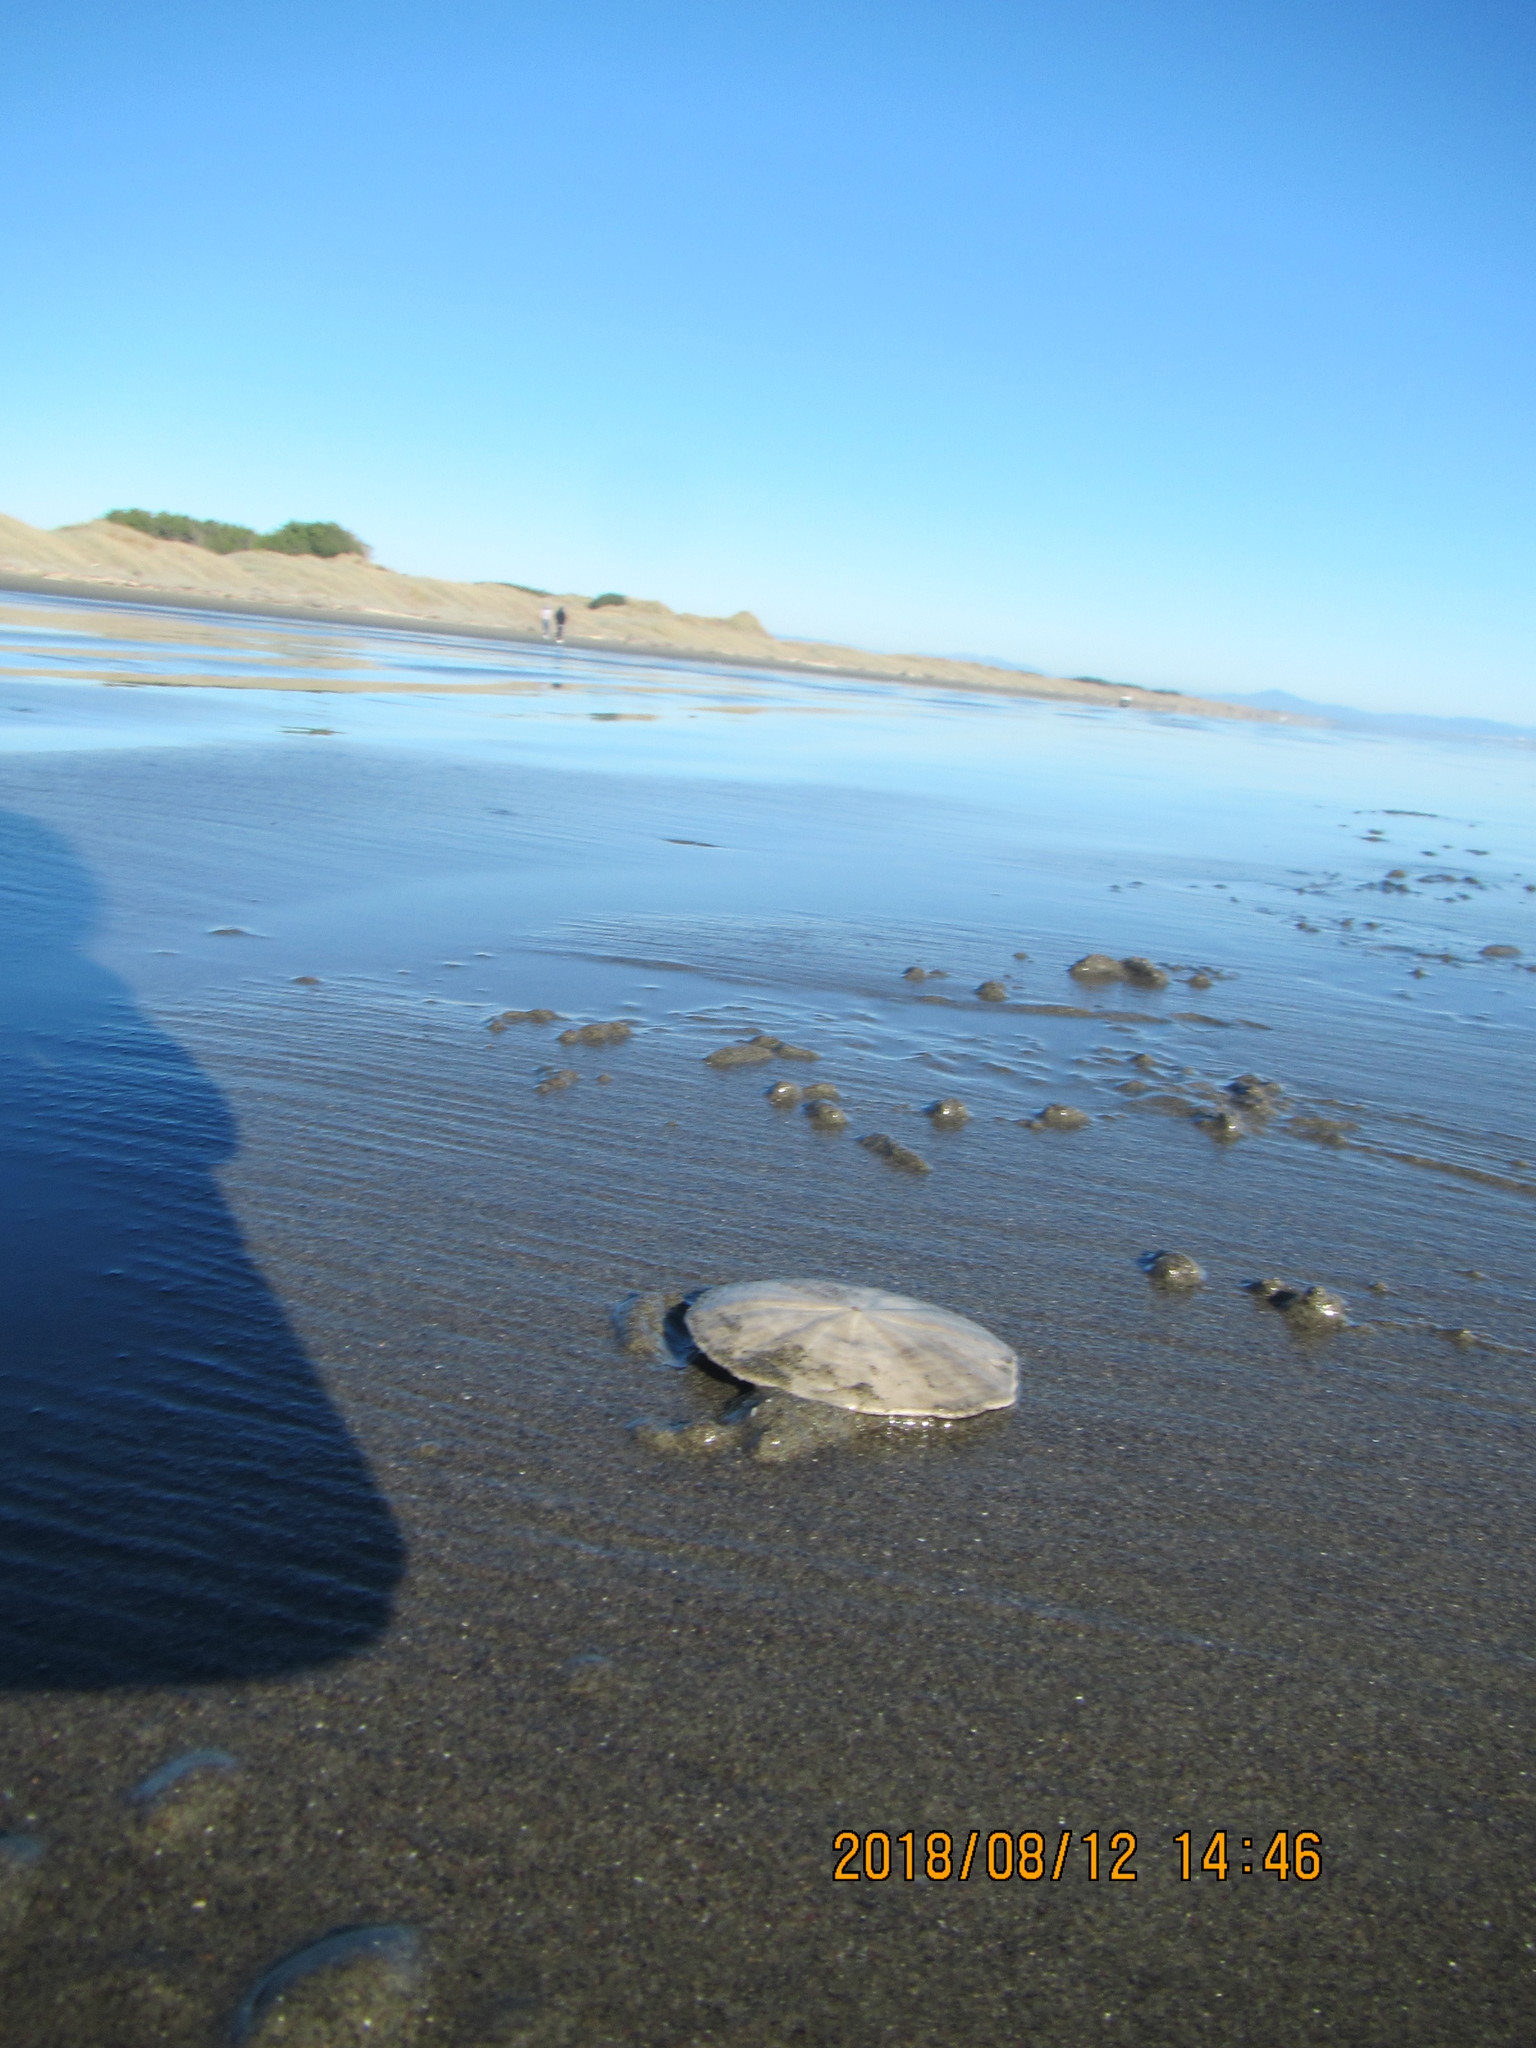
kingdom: Animalia
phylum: Echinodermata
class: Echinoidea
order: Clypeasteroida
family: Clypeasteridae
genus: Fellaster
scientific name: Fellaster zelandiae
